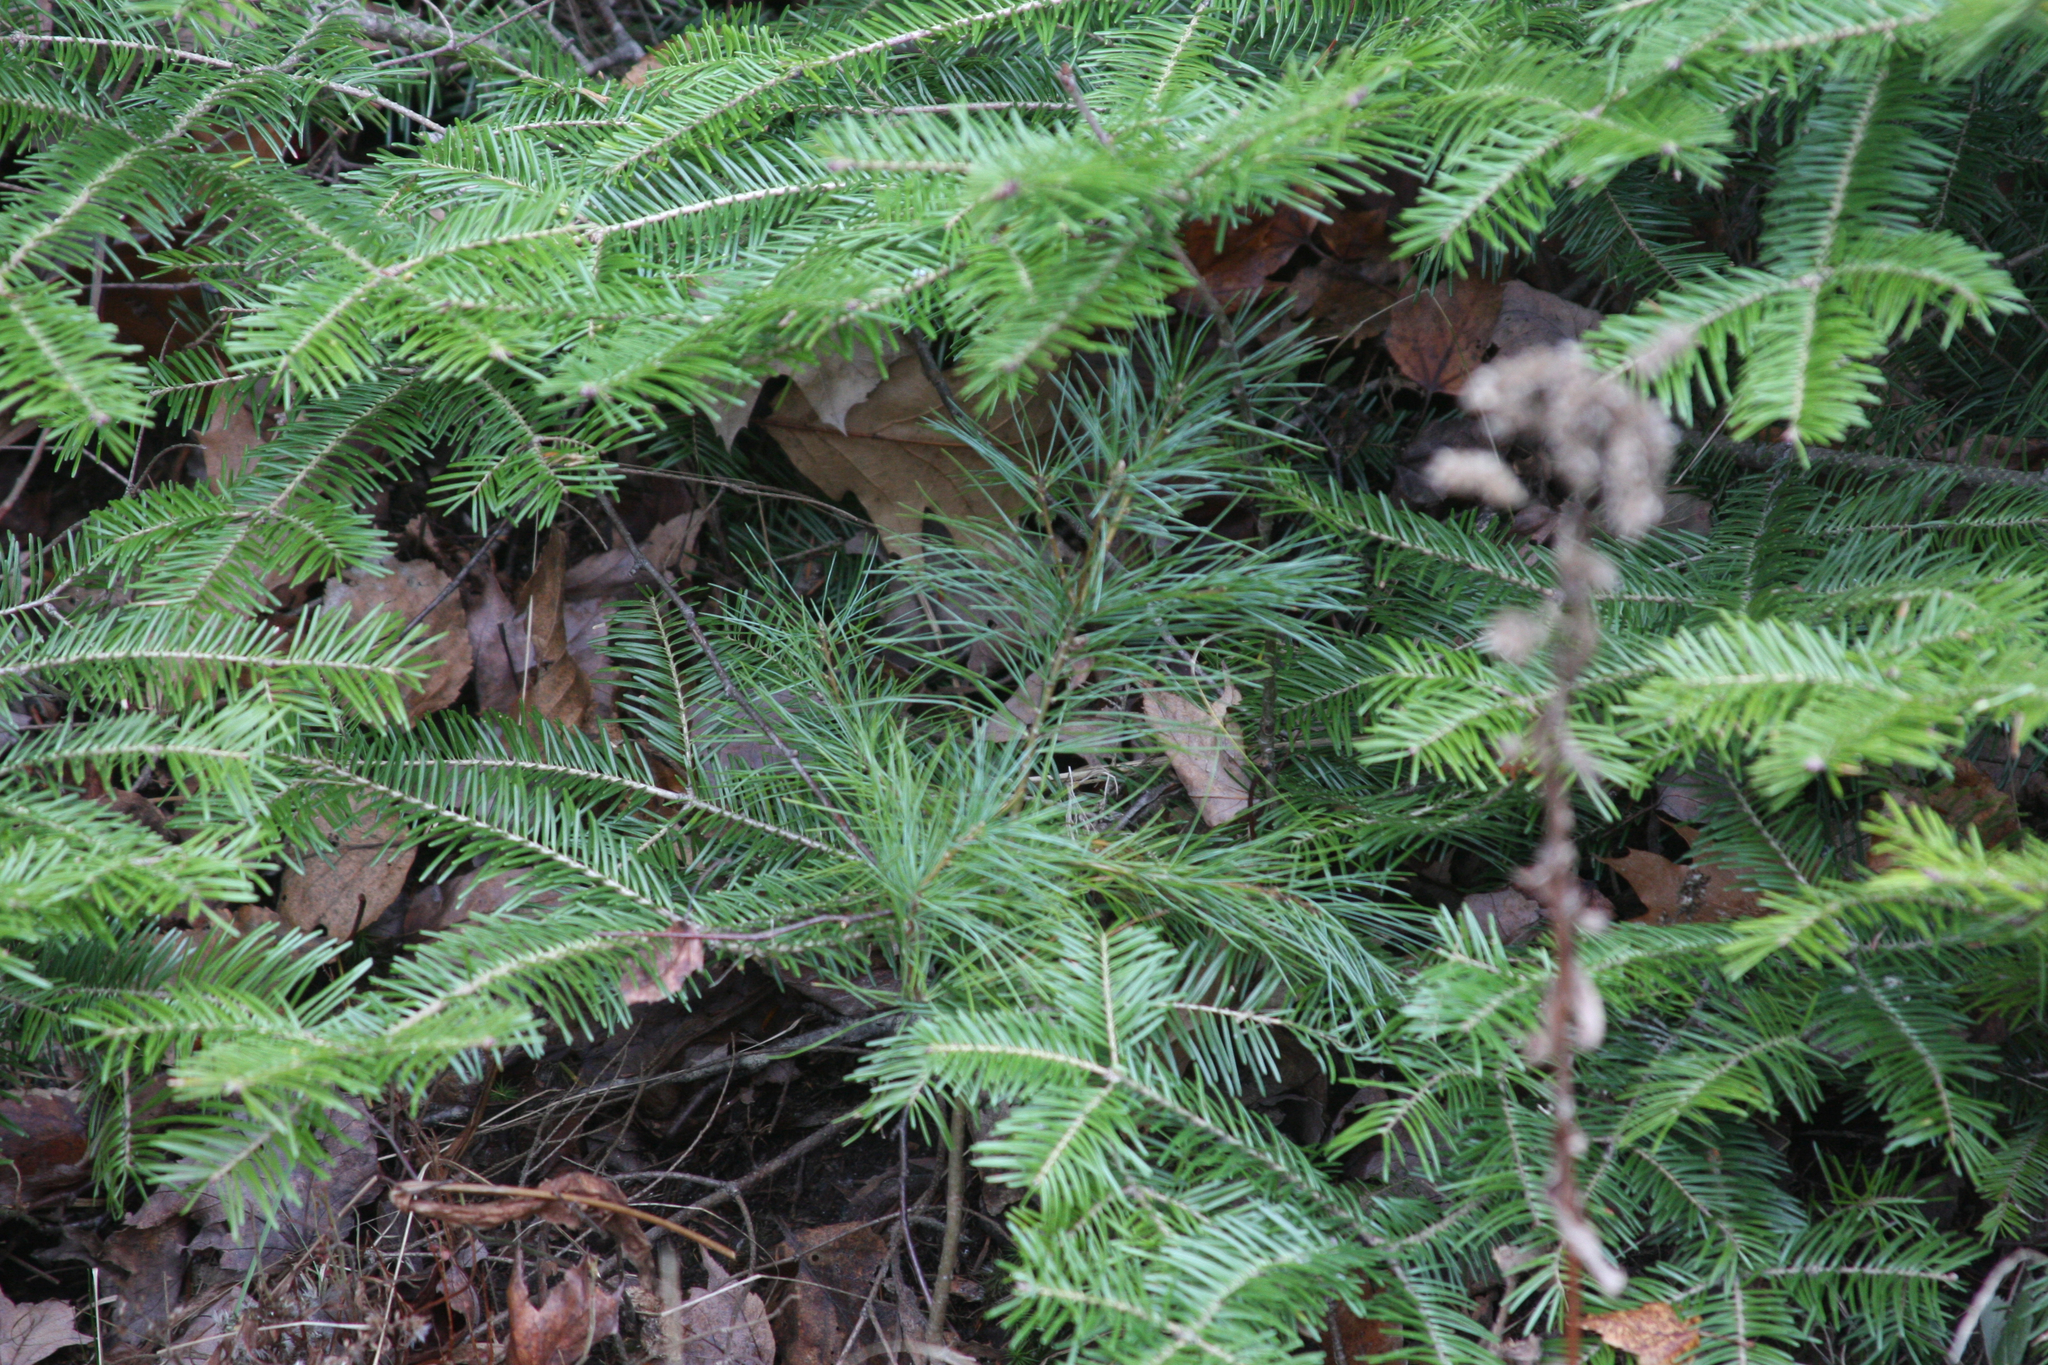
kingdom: Plantae
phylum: Tracheophyta
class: Pinopsida
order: Pinales
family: Pinaceae
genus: Pinus
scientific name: Pinus strobus
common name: Weymouth pine
